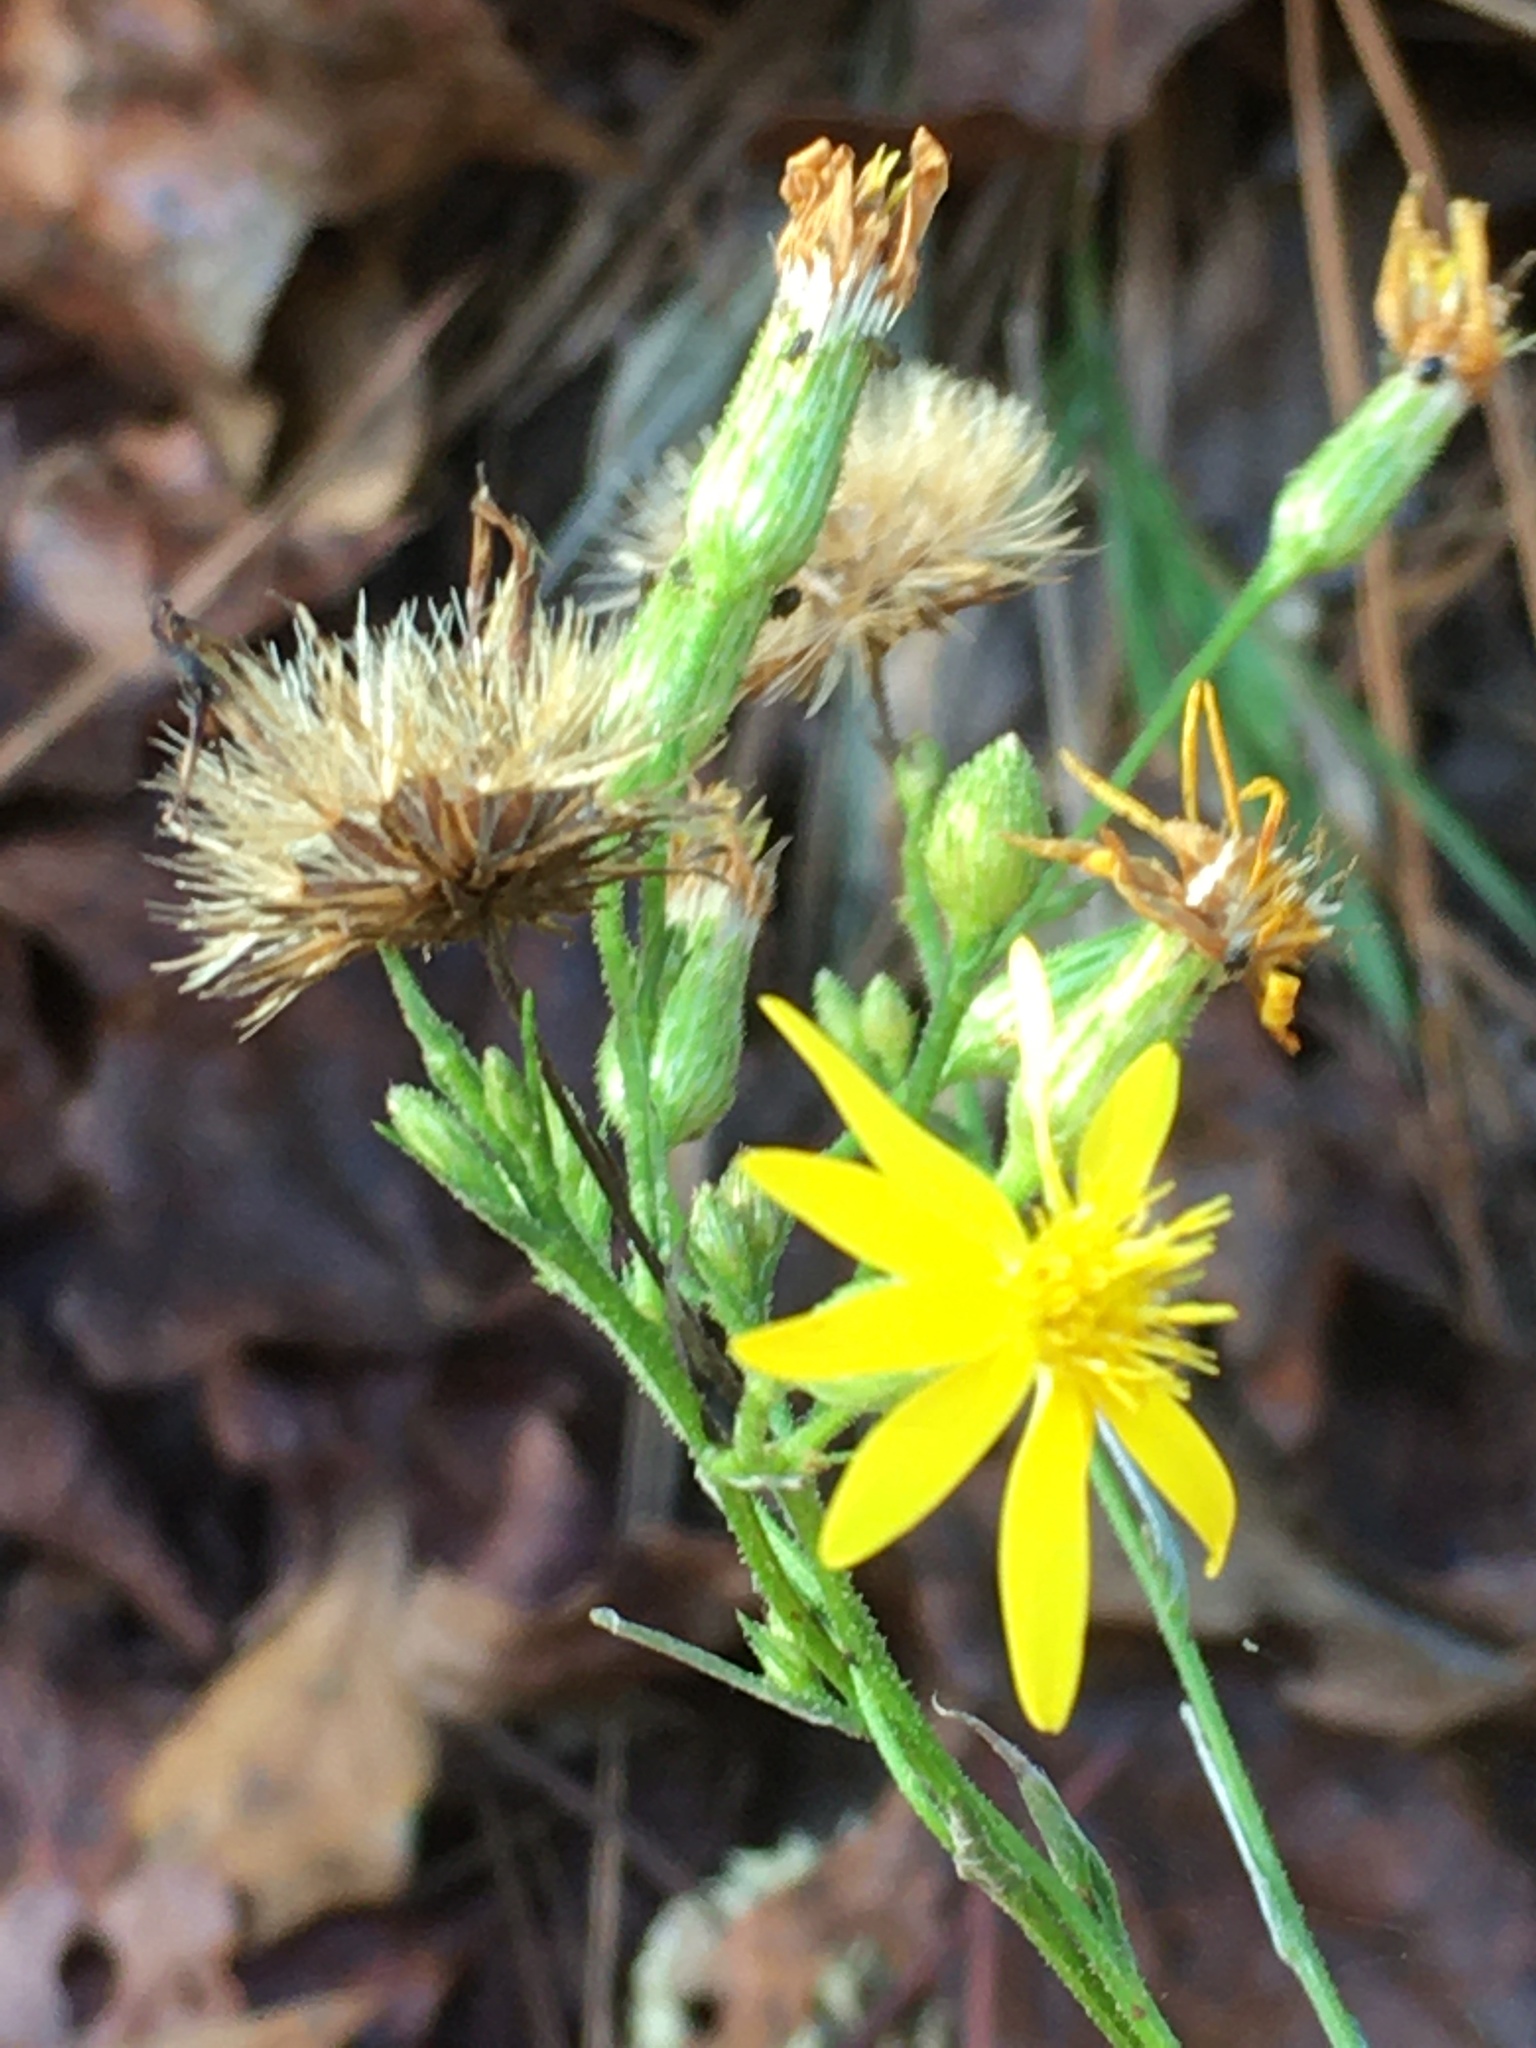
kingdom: Plantae
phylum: Tracheophyta
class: Magnoliopsida
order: Asterales
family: Asteraceae
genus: Pityopsis
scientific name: Pityopsis aspera
